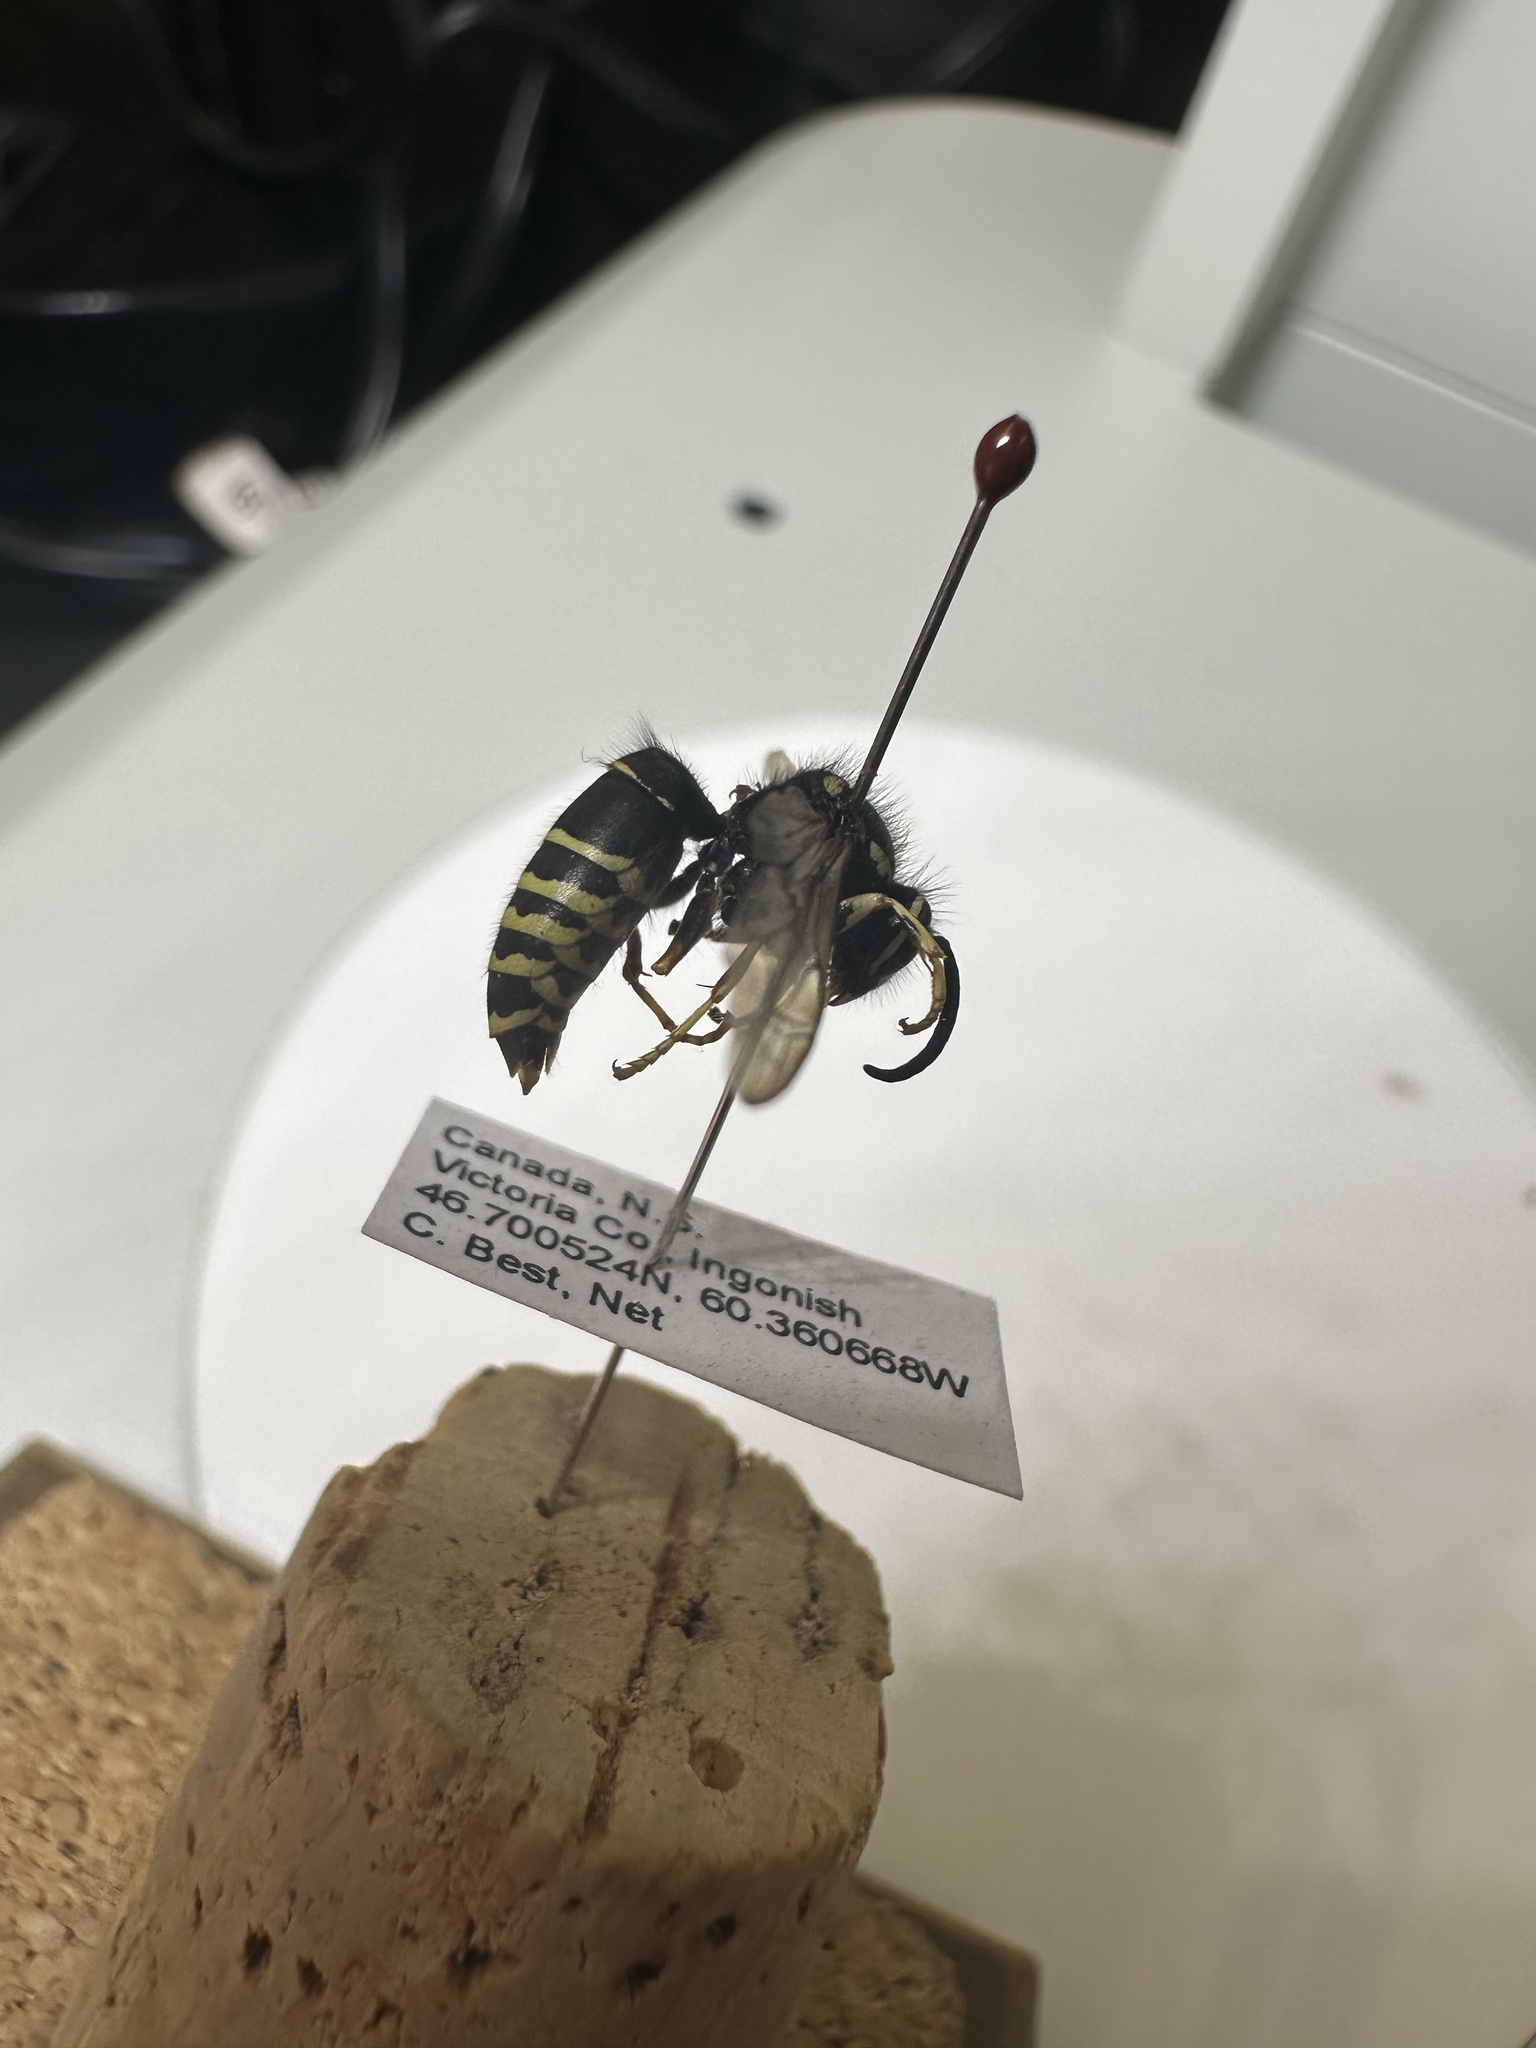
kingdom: Animalia
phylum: Arthropoda
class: Insecta
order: Hymenoptera
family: Vespidae
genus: Dolichovespula
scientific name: Dolichovespula adulterina
